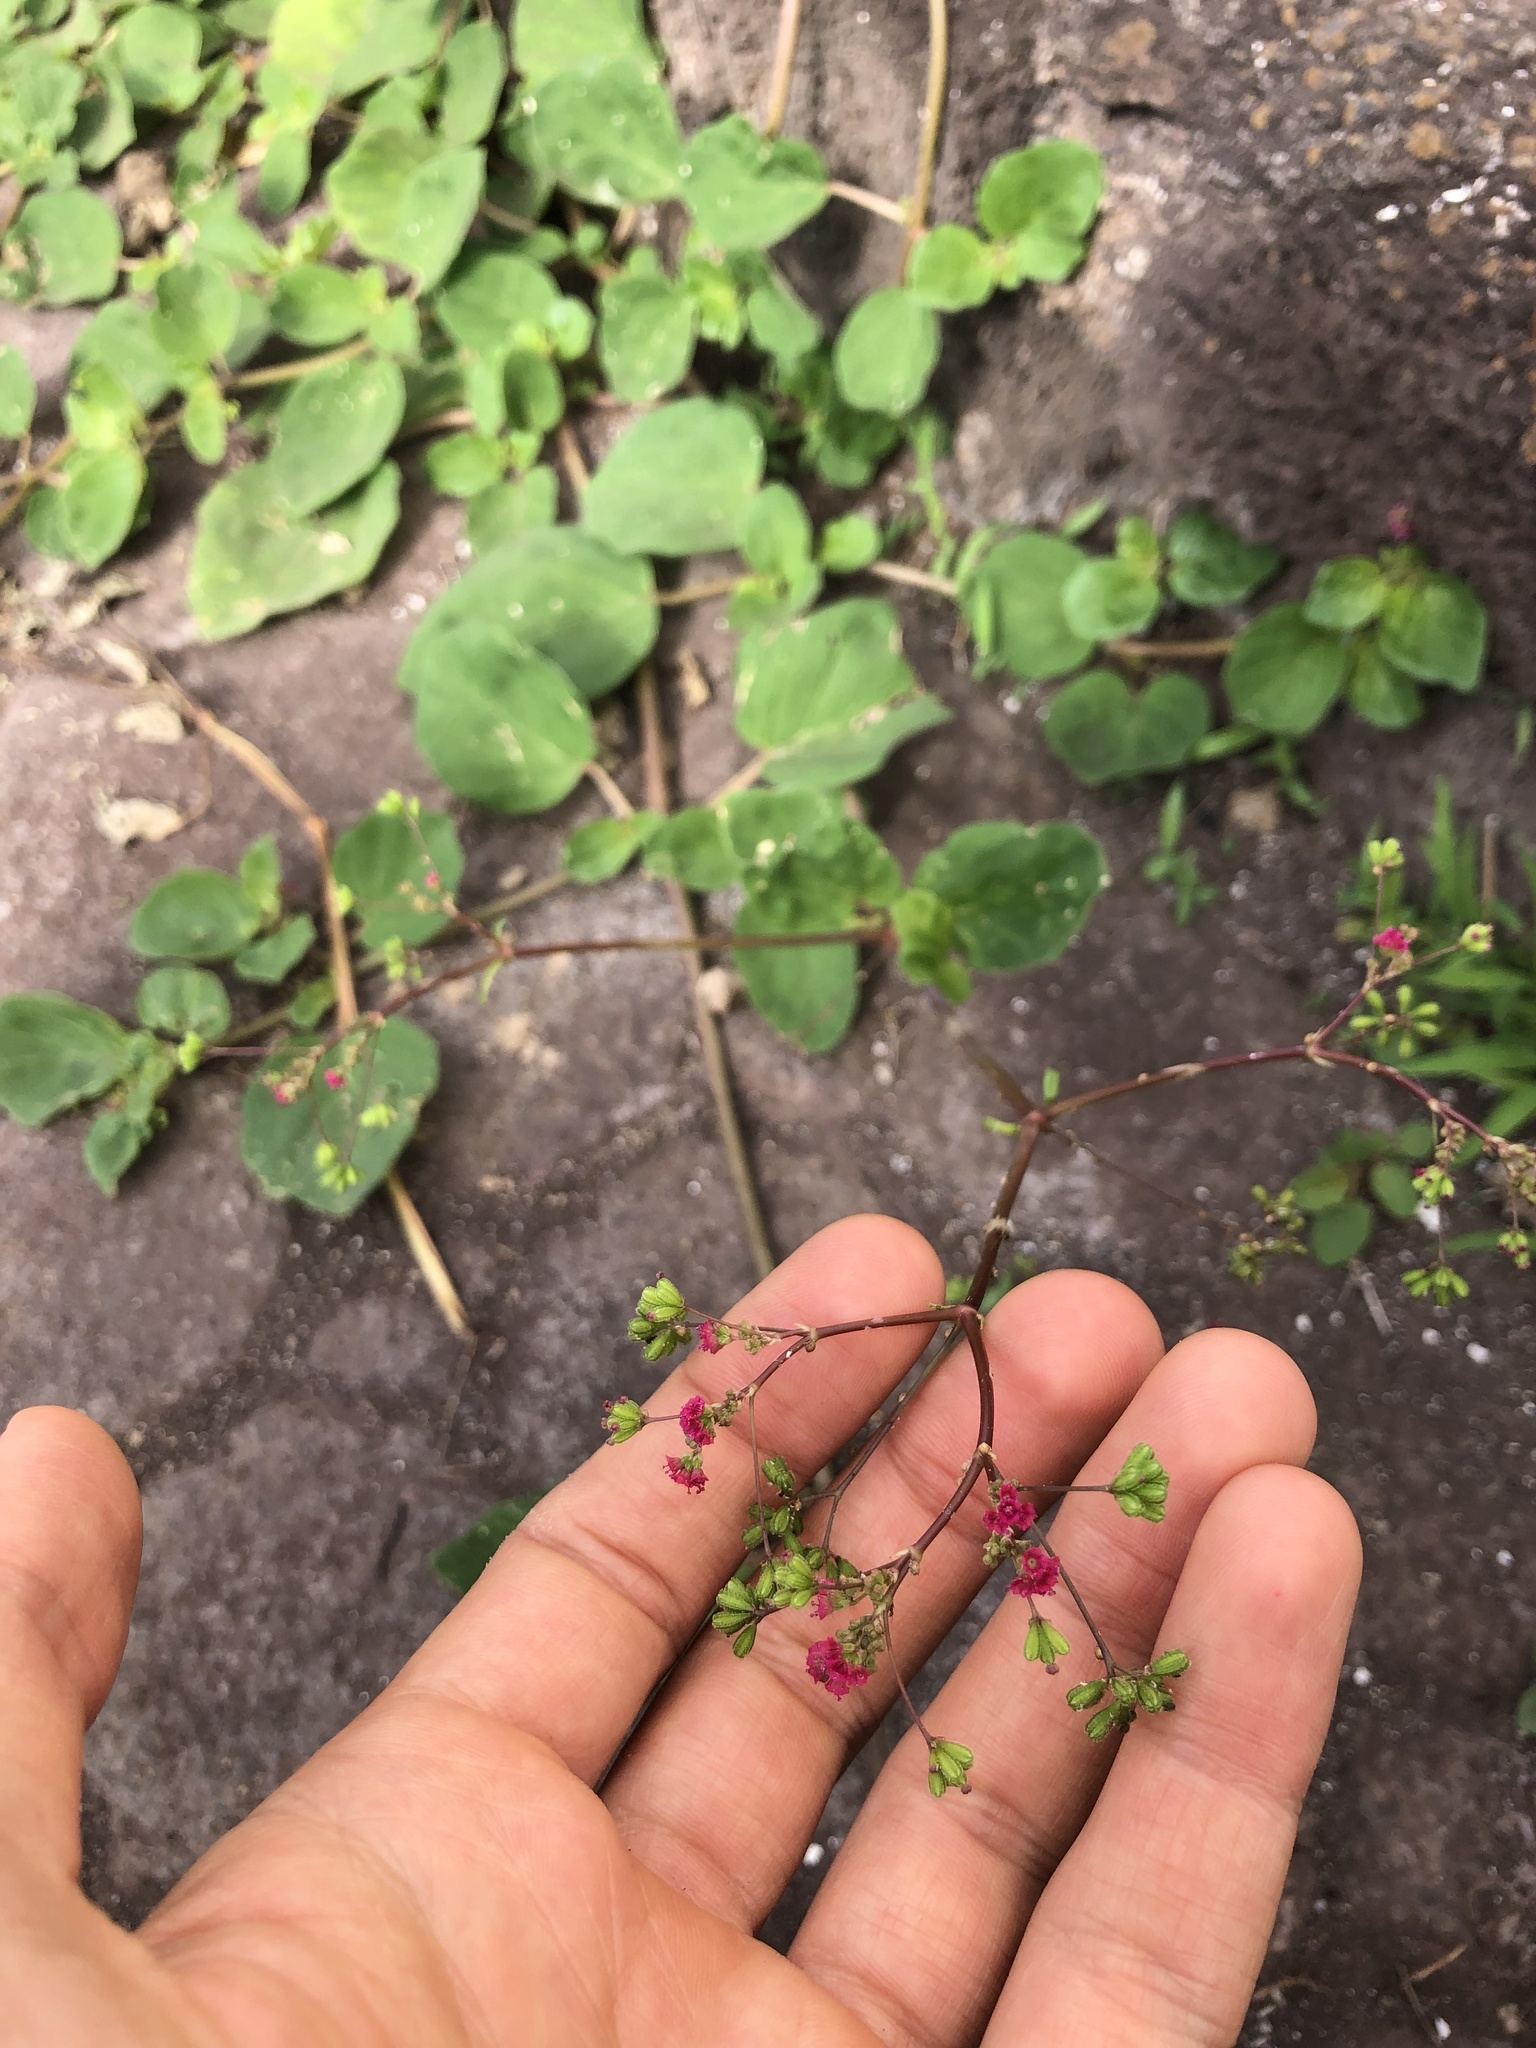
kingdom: Plantae
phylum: Tracheophyta
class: Magnoliopsida
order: Caryophyllales
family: Nyctaginaceae
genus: Boerhavia
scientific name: Boerhavia diffusa
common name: Red spiderling
